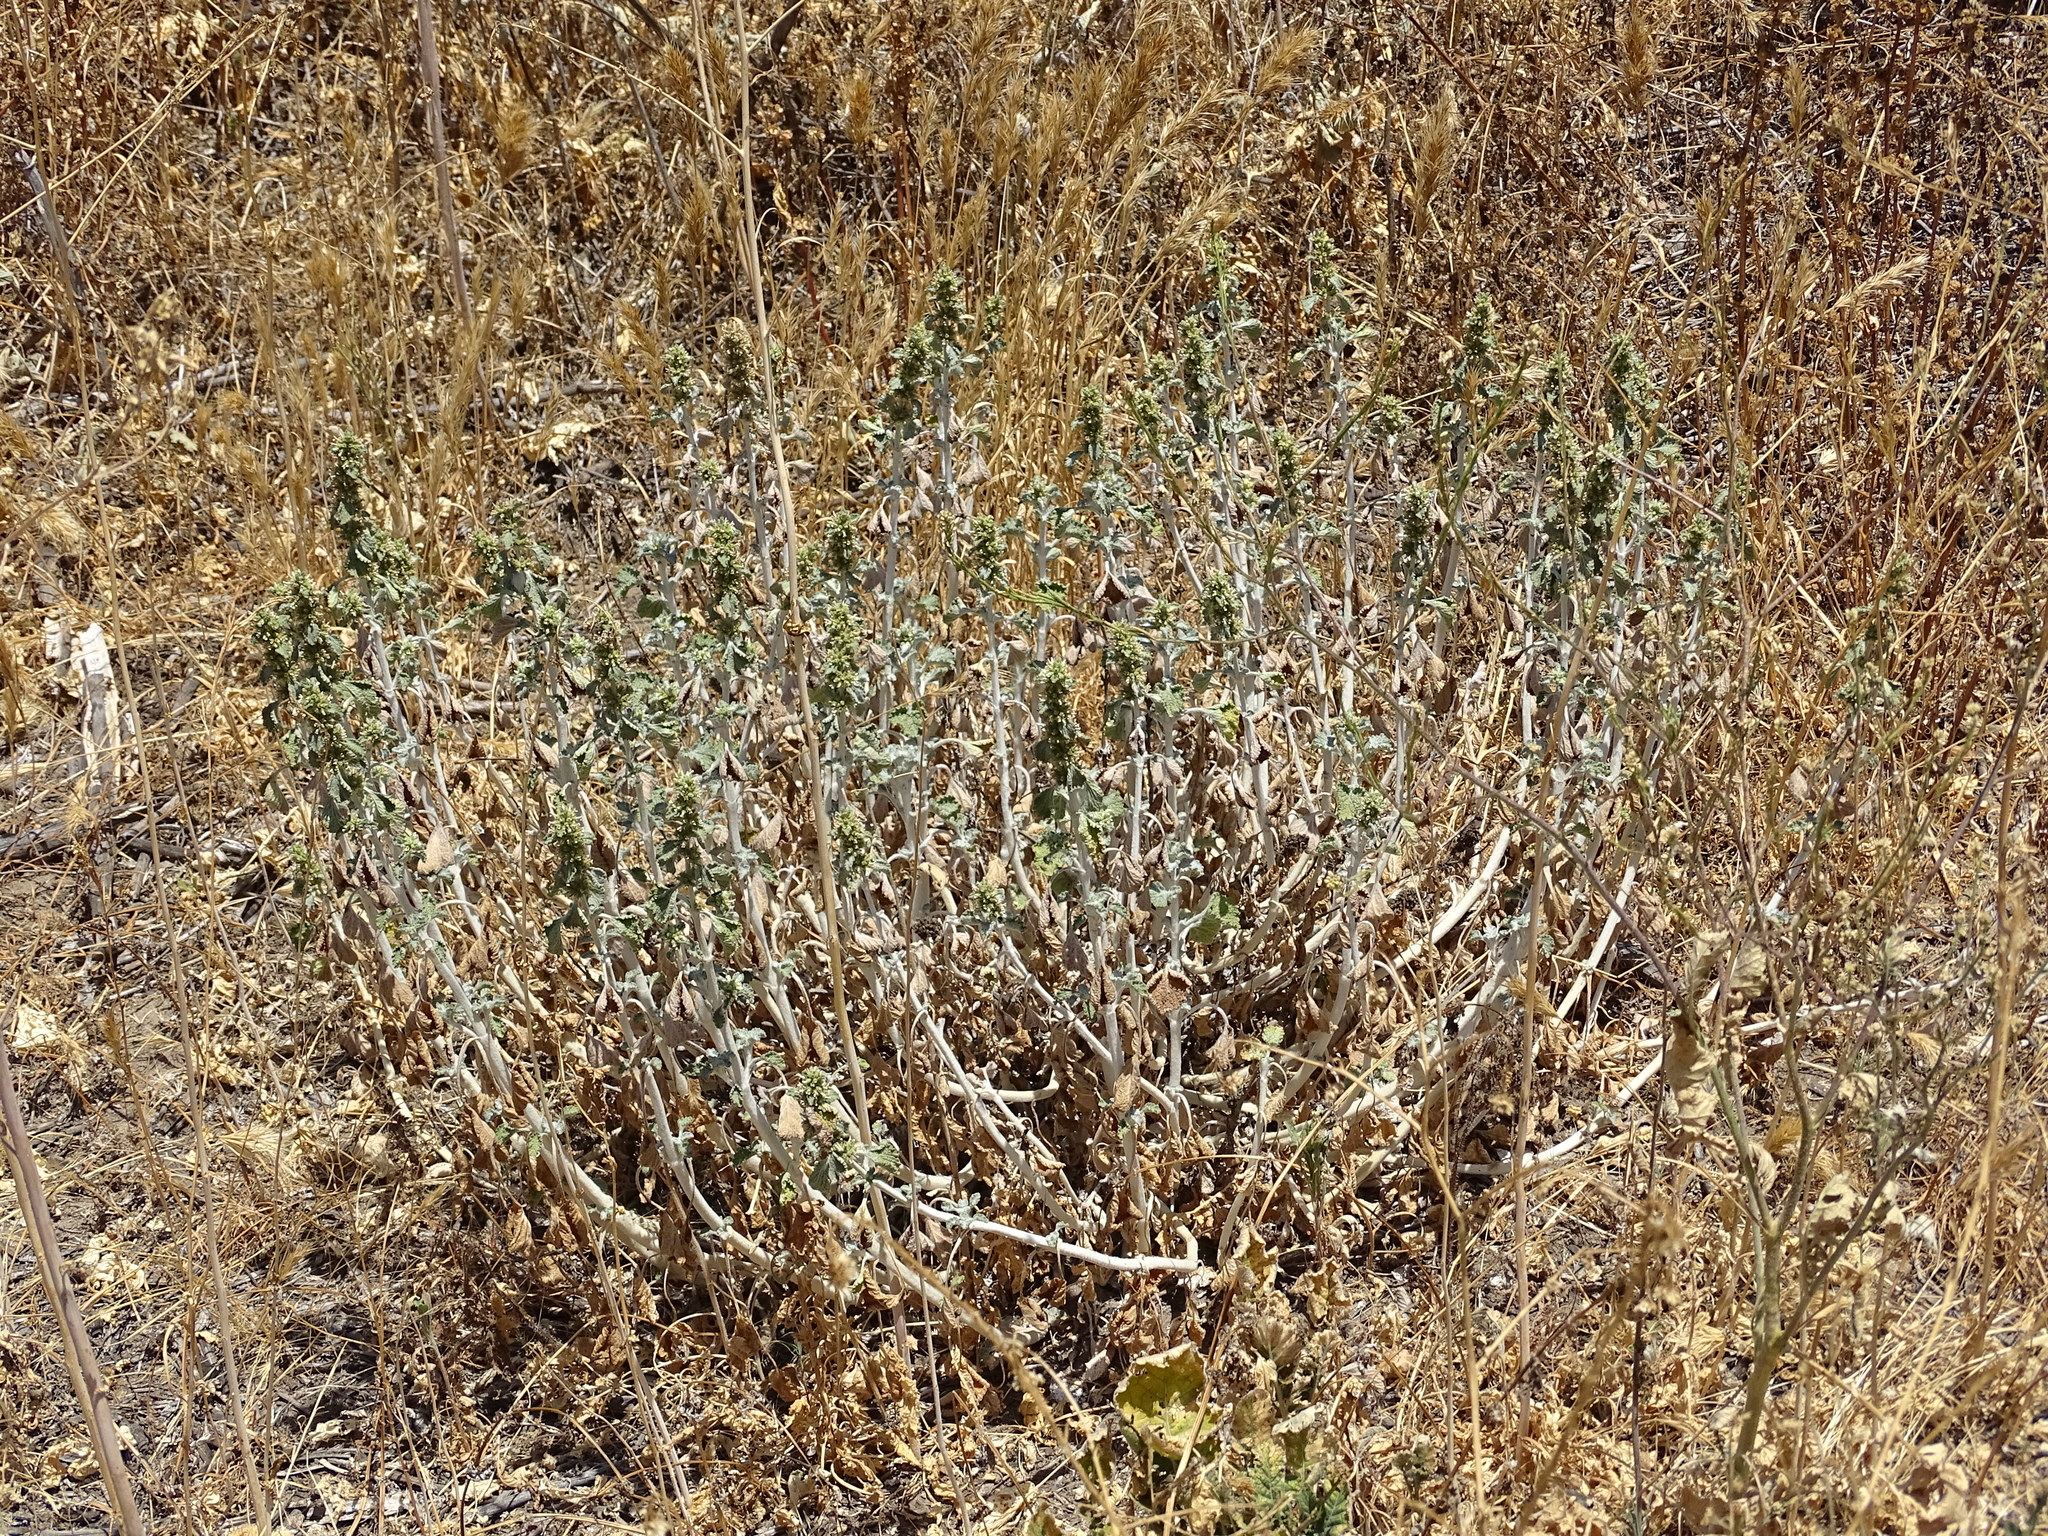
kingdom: Plantae
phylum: Tracheophyta
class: Magnoliopsida
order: Lamiales
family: Lamiaceae
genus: Marrubium
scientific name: Marrubium vulgare
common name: Horehound
